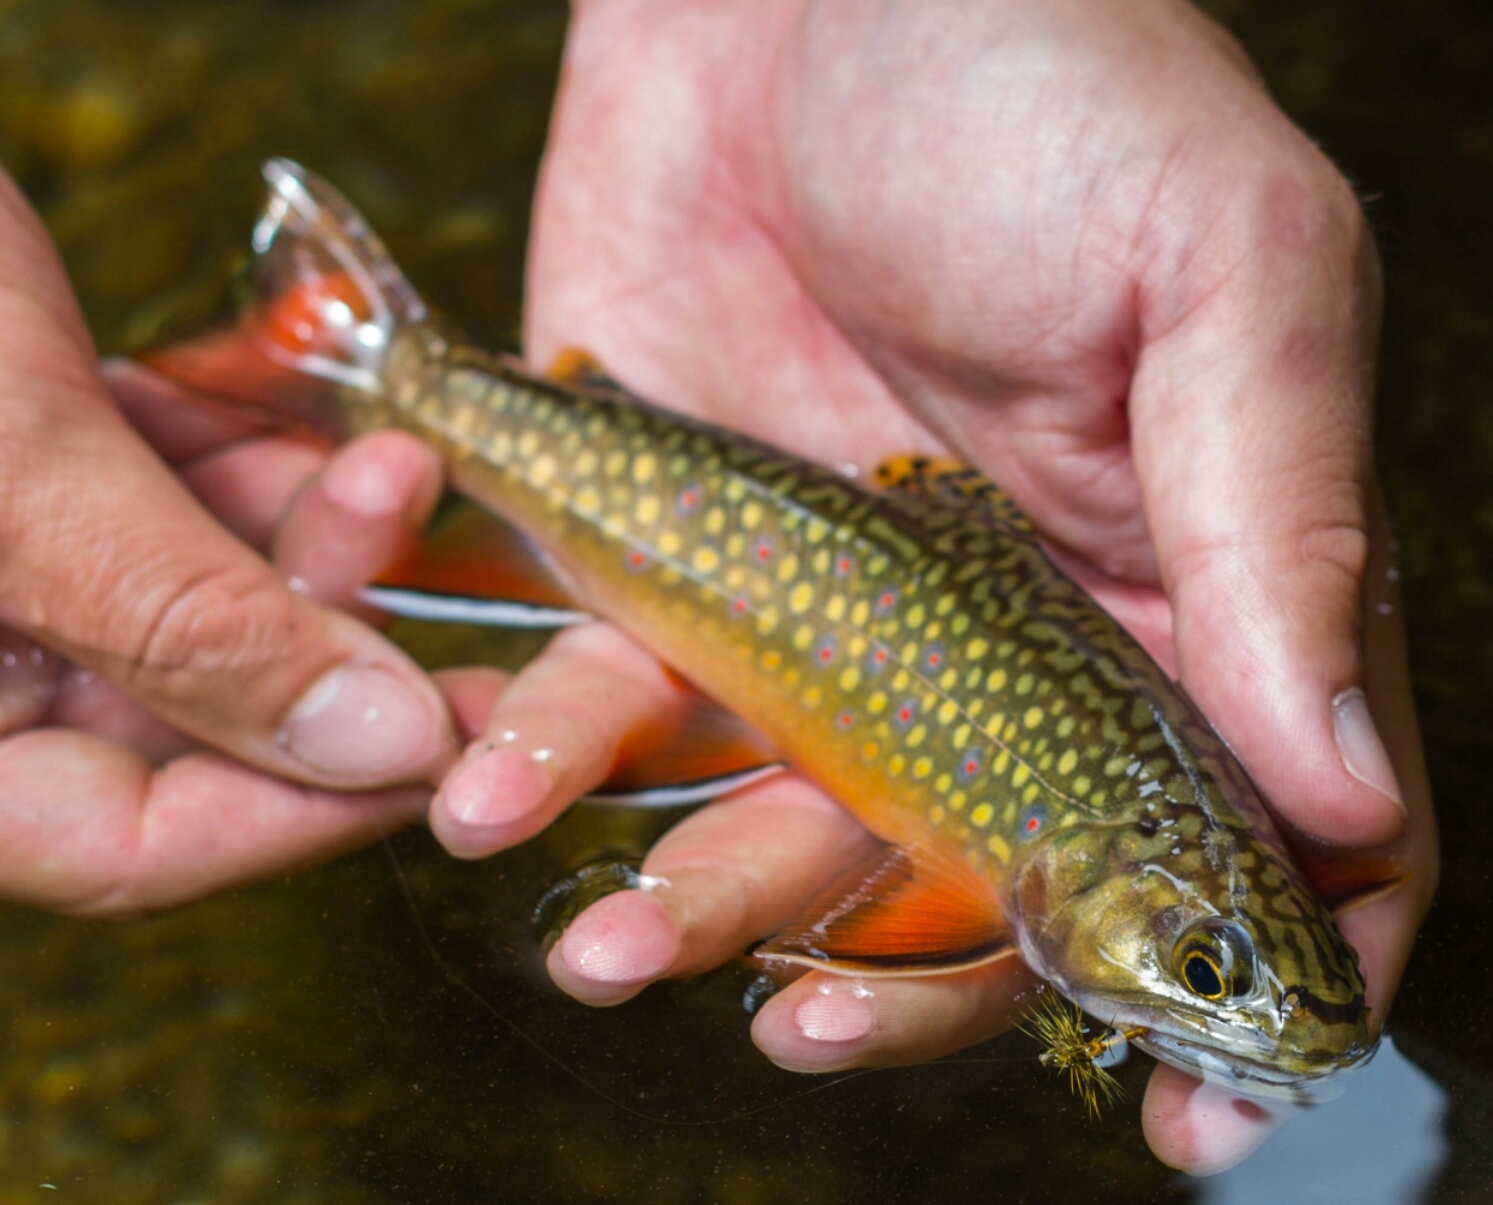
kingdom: Animalia
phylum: Chordata
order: Salmoniformes
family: Salmonidae
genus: Salvelinus
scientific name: Salvelinus fontinalis
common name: Brook trout
